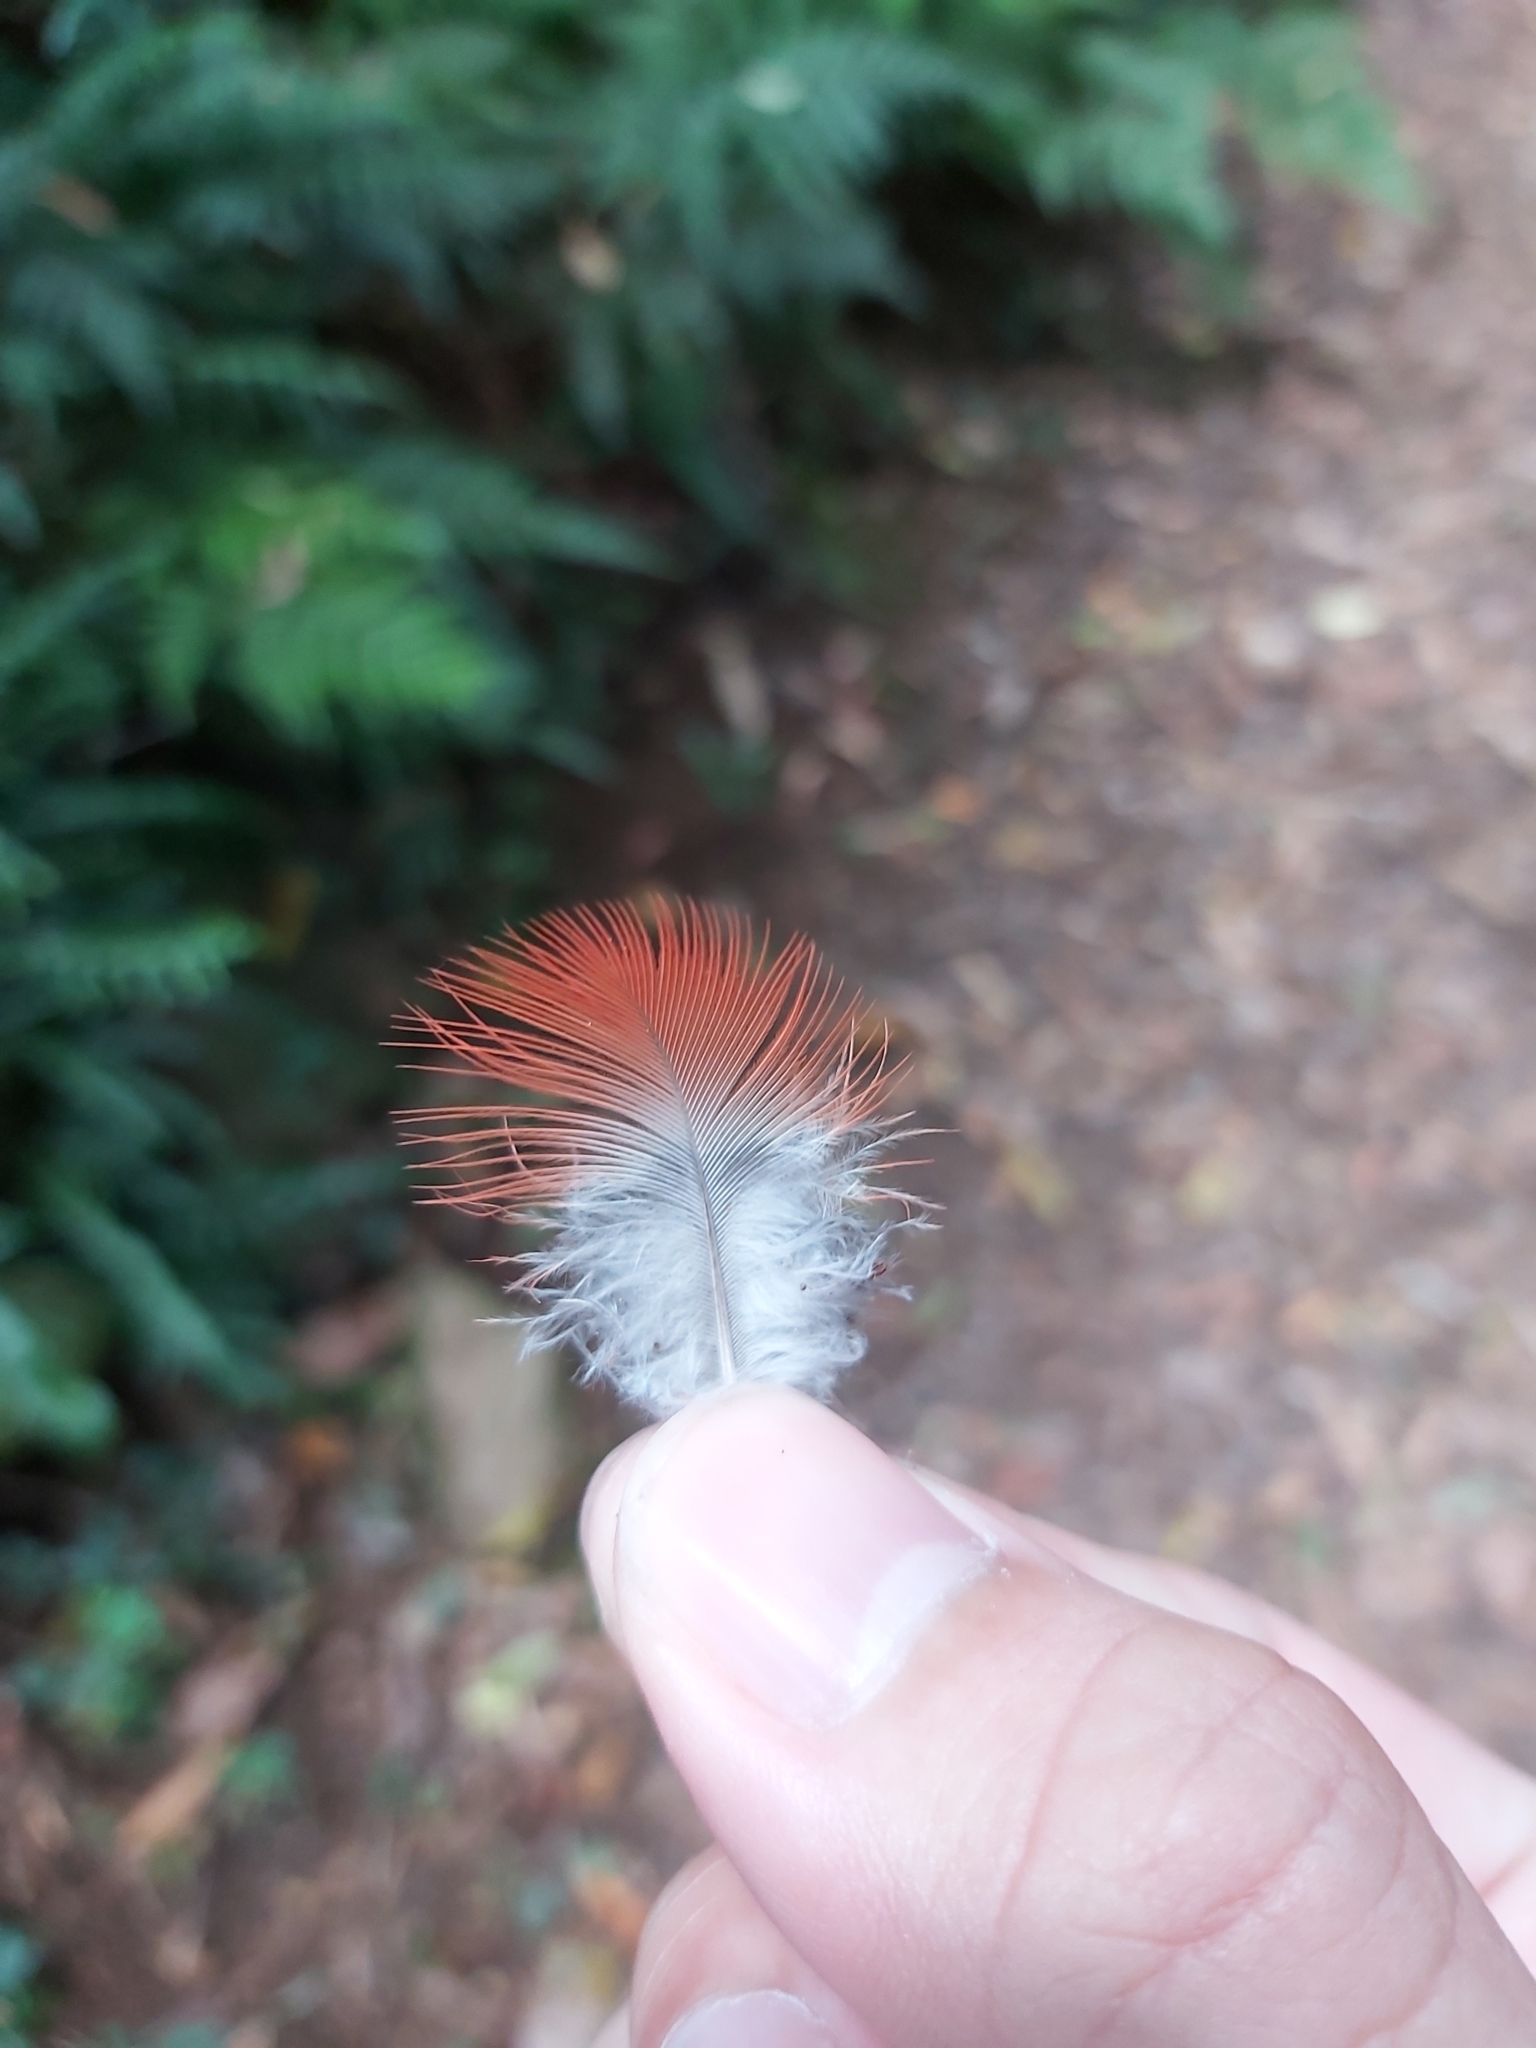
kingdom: Animalia
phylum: Chordata
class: Aves
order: Psittaciformes
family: Psittacidae
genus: Platycercus
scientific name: Platycercus eximius
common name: Eastern rosella
